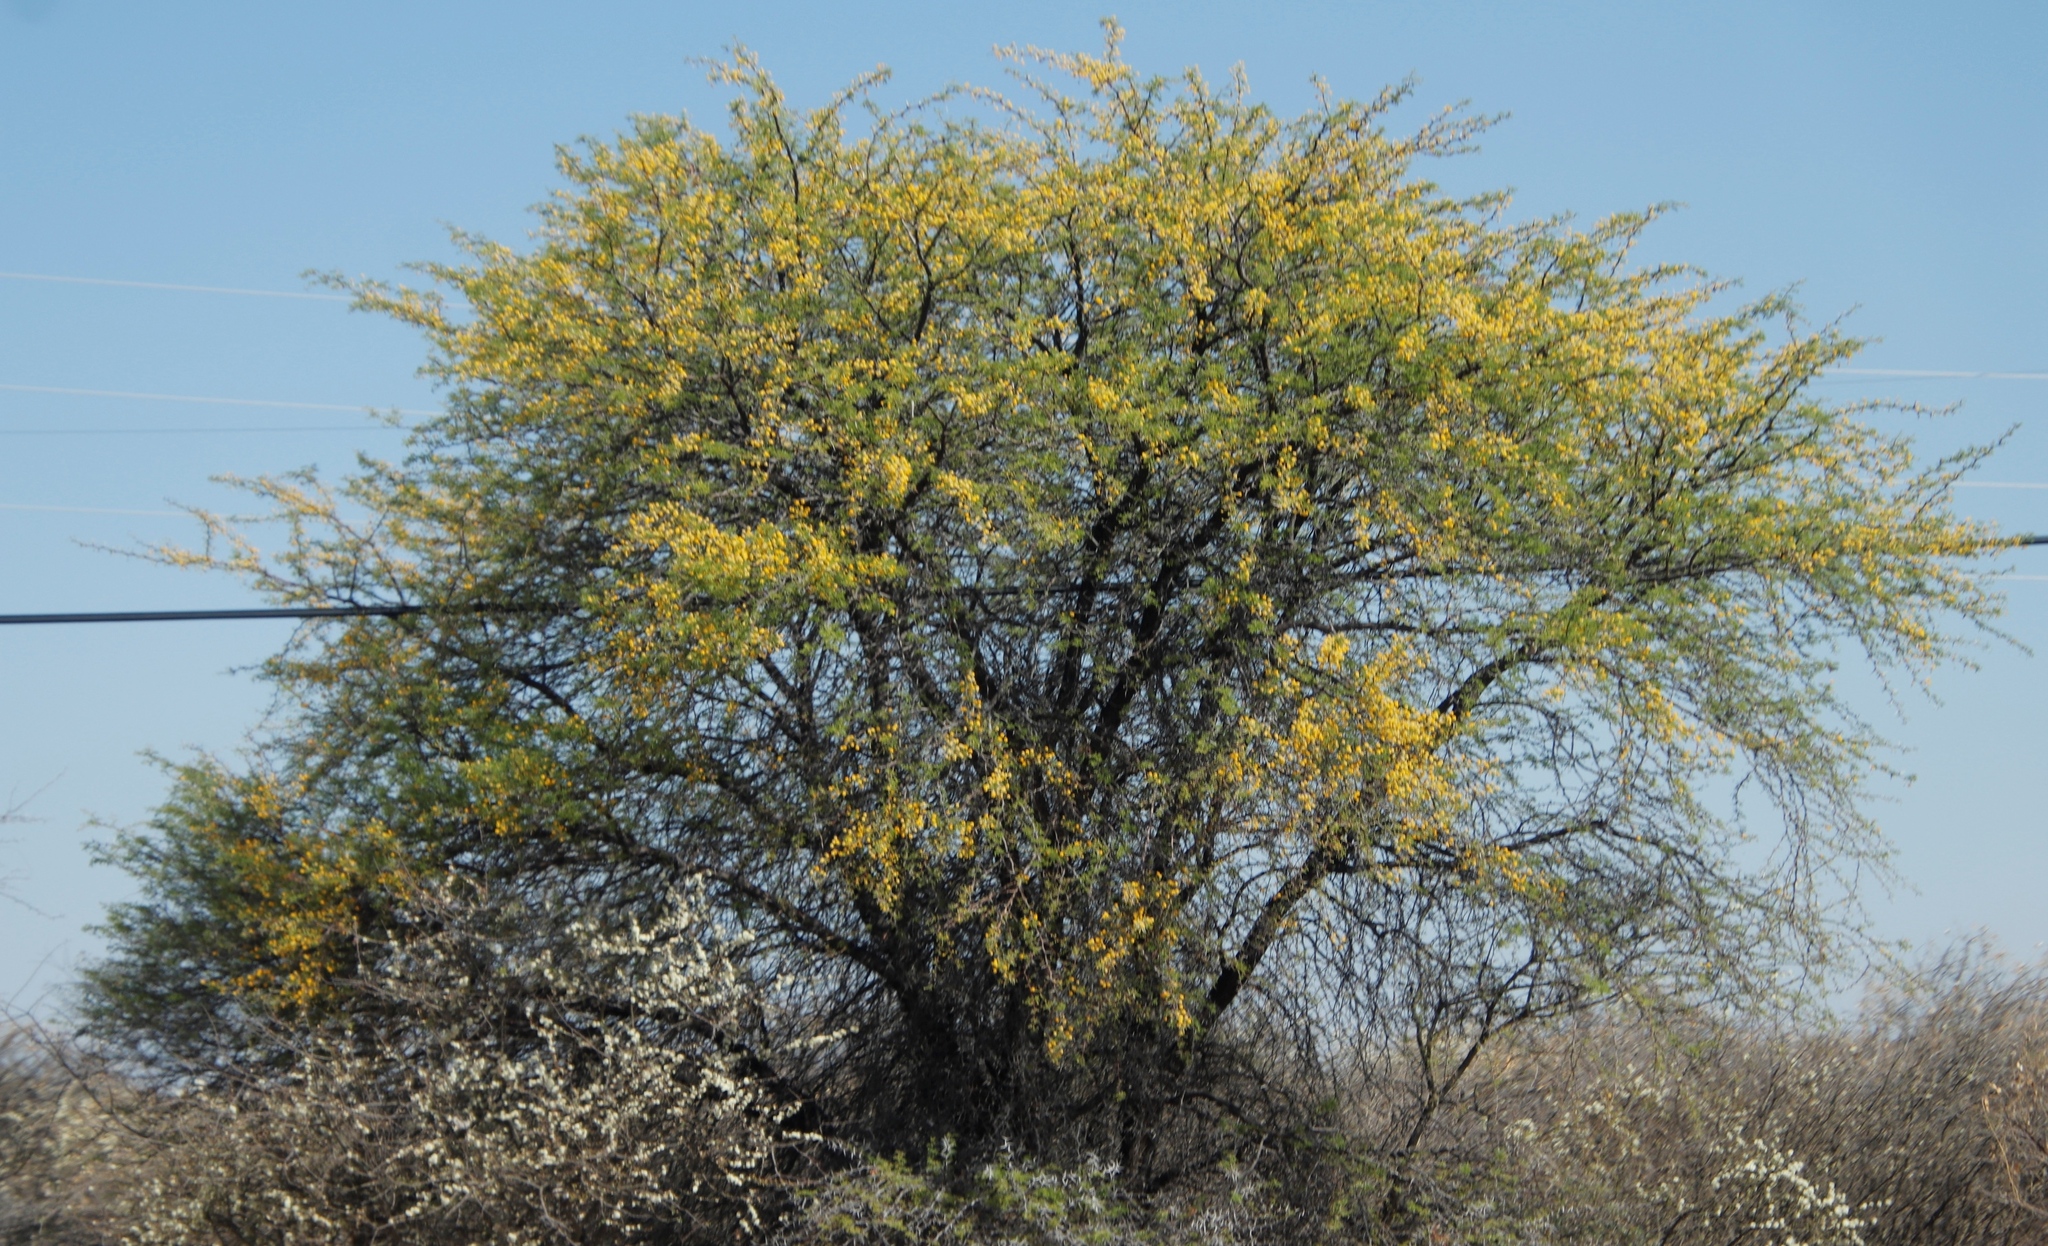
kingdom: Plantae
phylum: Tracheophyta
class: Magnoliopsida
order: Fabales
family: Fabaceae
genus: Vachellia
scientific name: Vachellia erioloba
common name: Camel thorn
